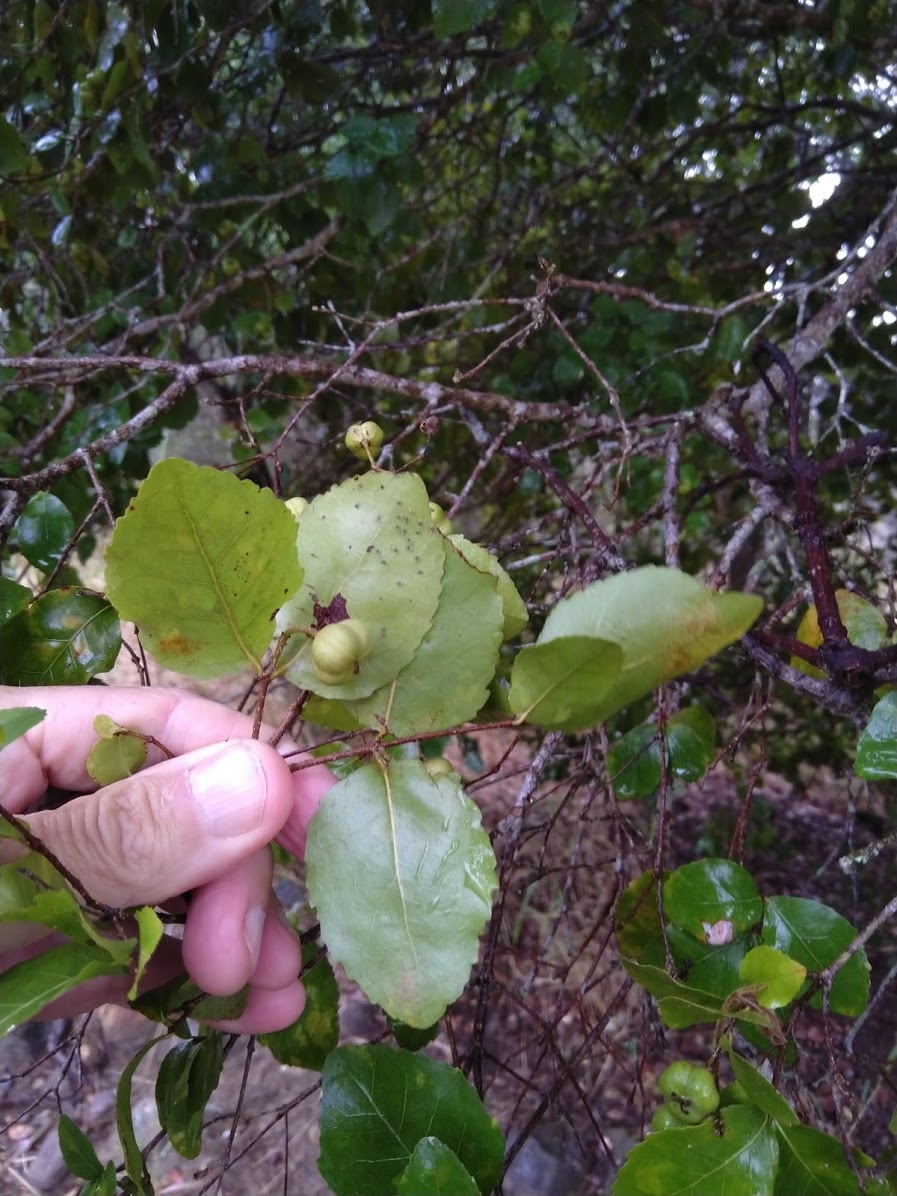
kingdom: Plantae
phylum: Tracheophyta
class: Magnoliopsida
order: Malpighiales
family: Picrodendraceae
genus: Dissiliaria
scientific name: Dissiliaria muelleri
